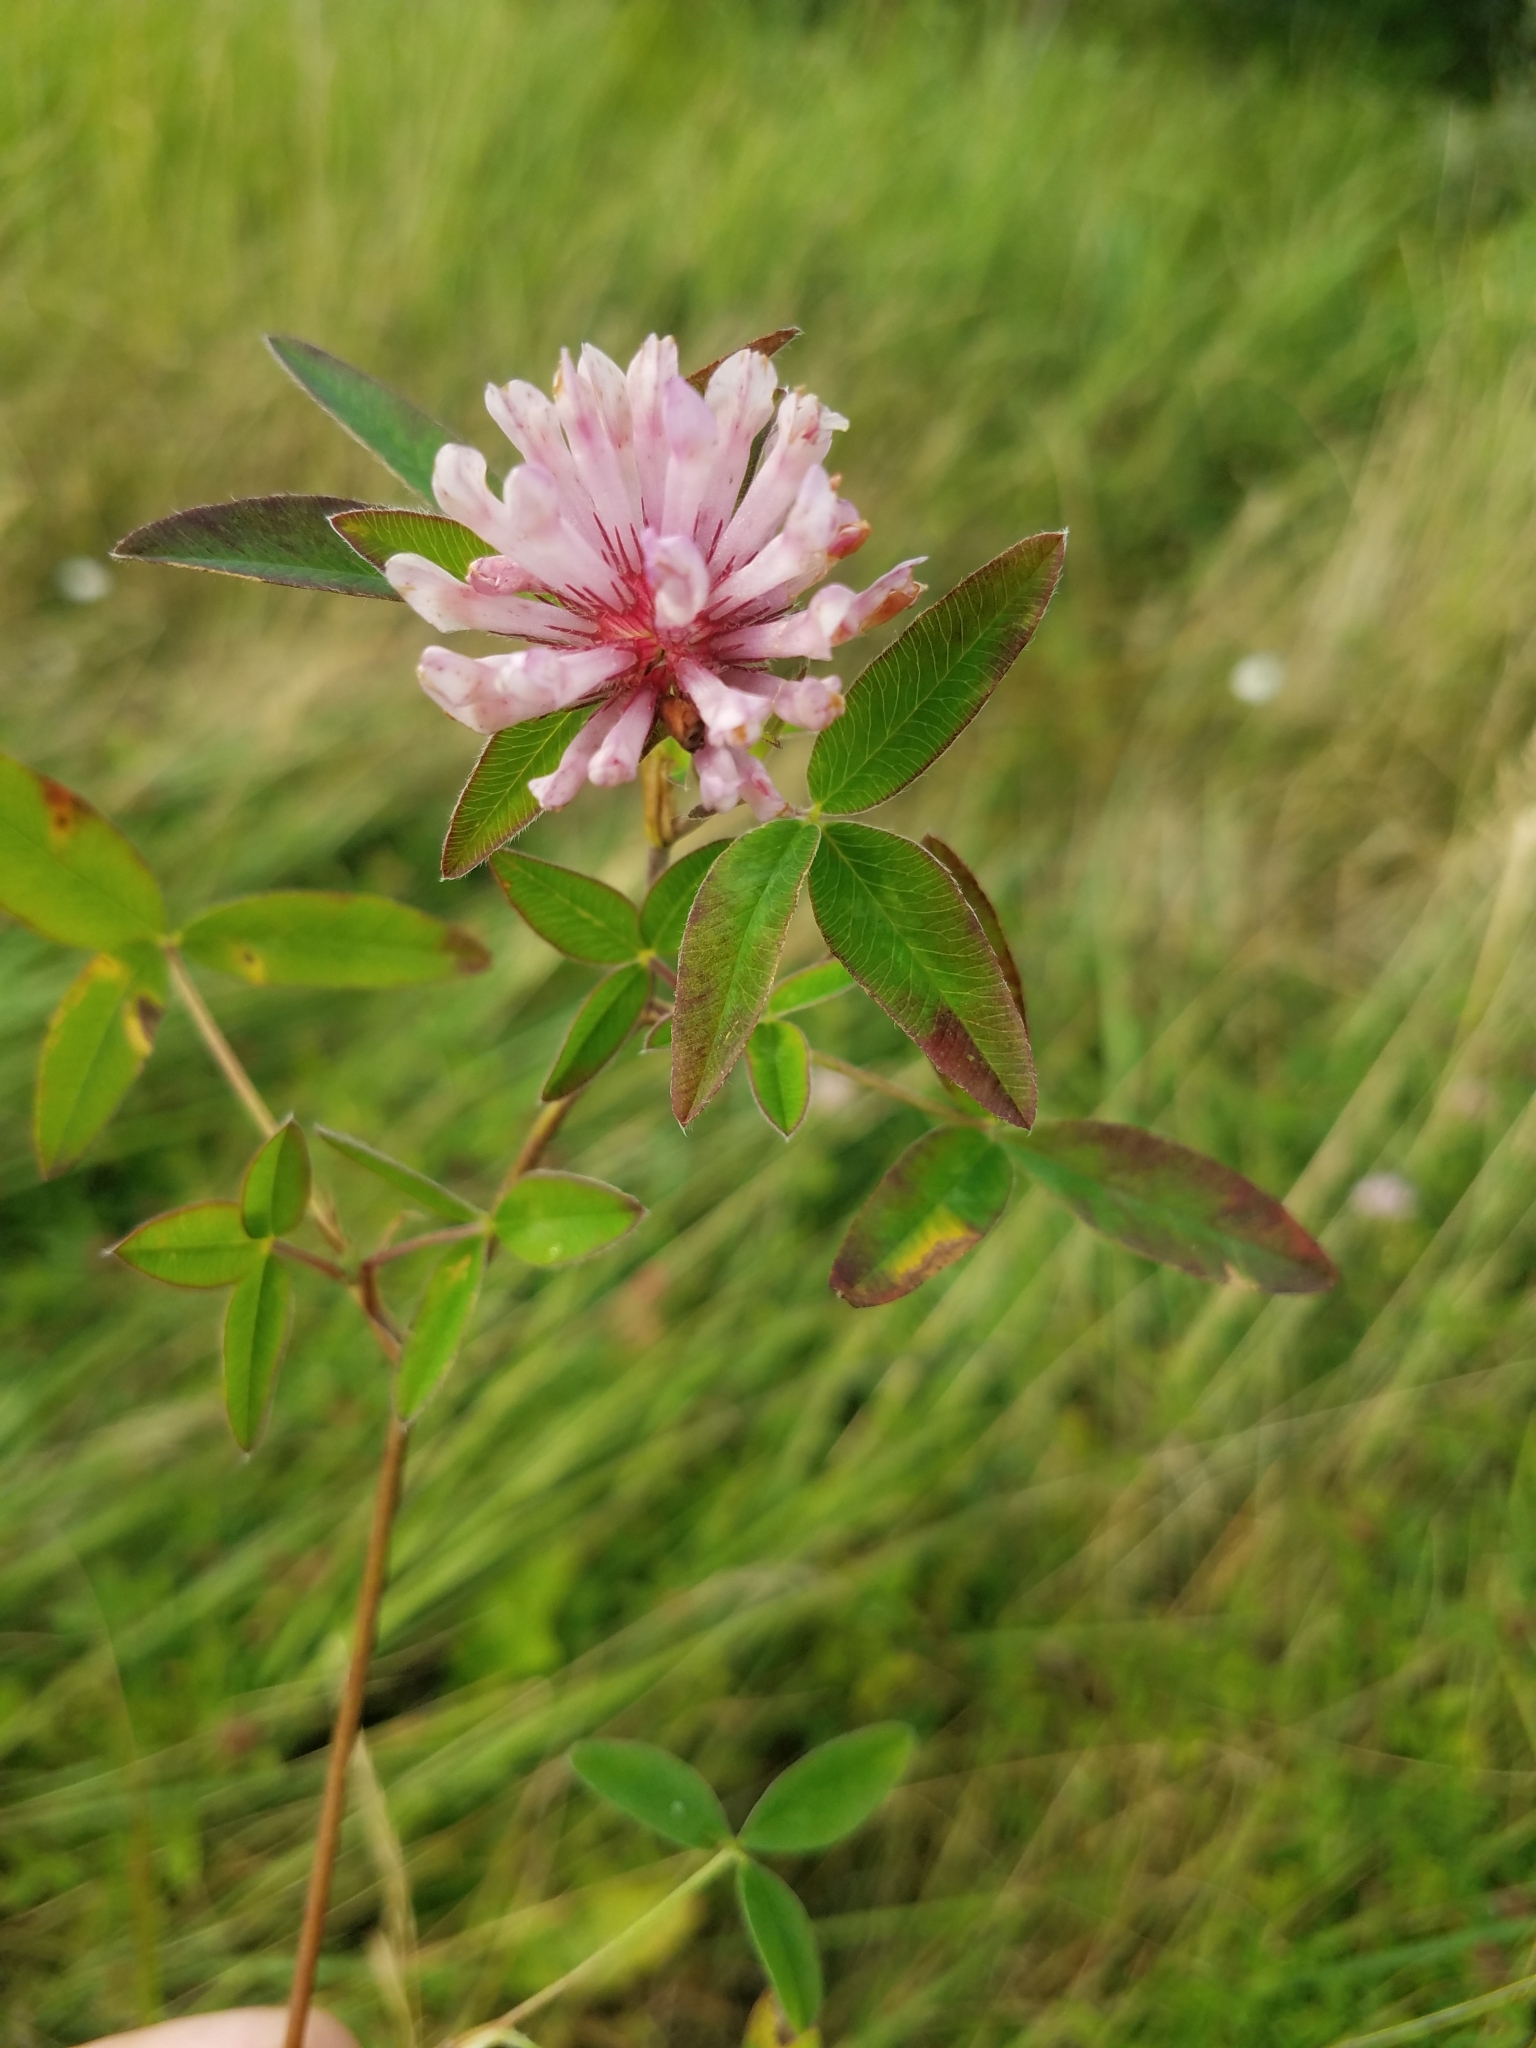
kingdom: Plantae
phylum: Tracheophyta
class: Magnoliopsida
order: Fabales
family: Fabaceae
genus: Trifolium
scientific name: Trifolium medium
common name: Zigzag clover
